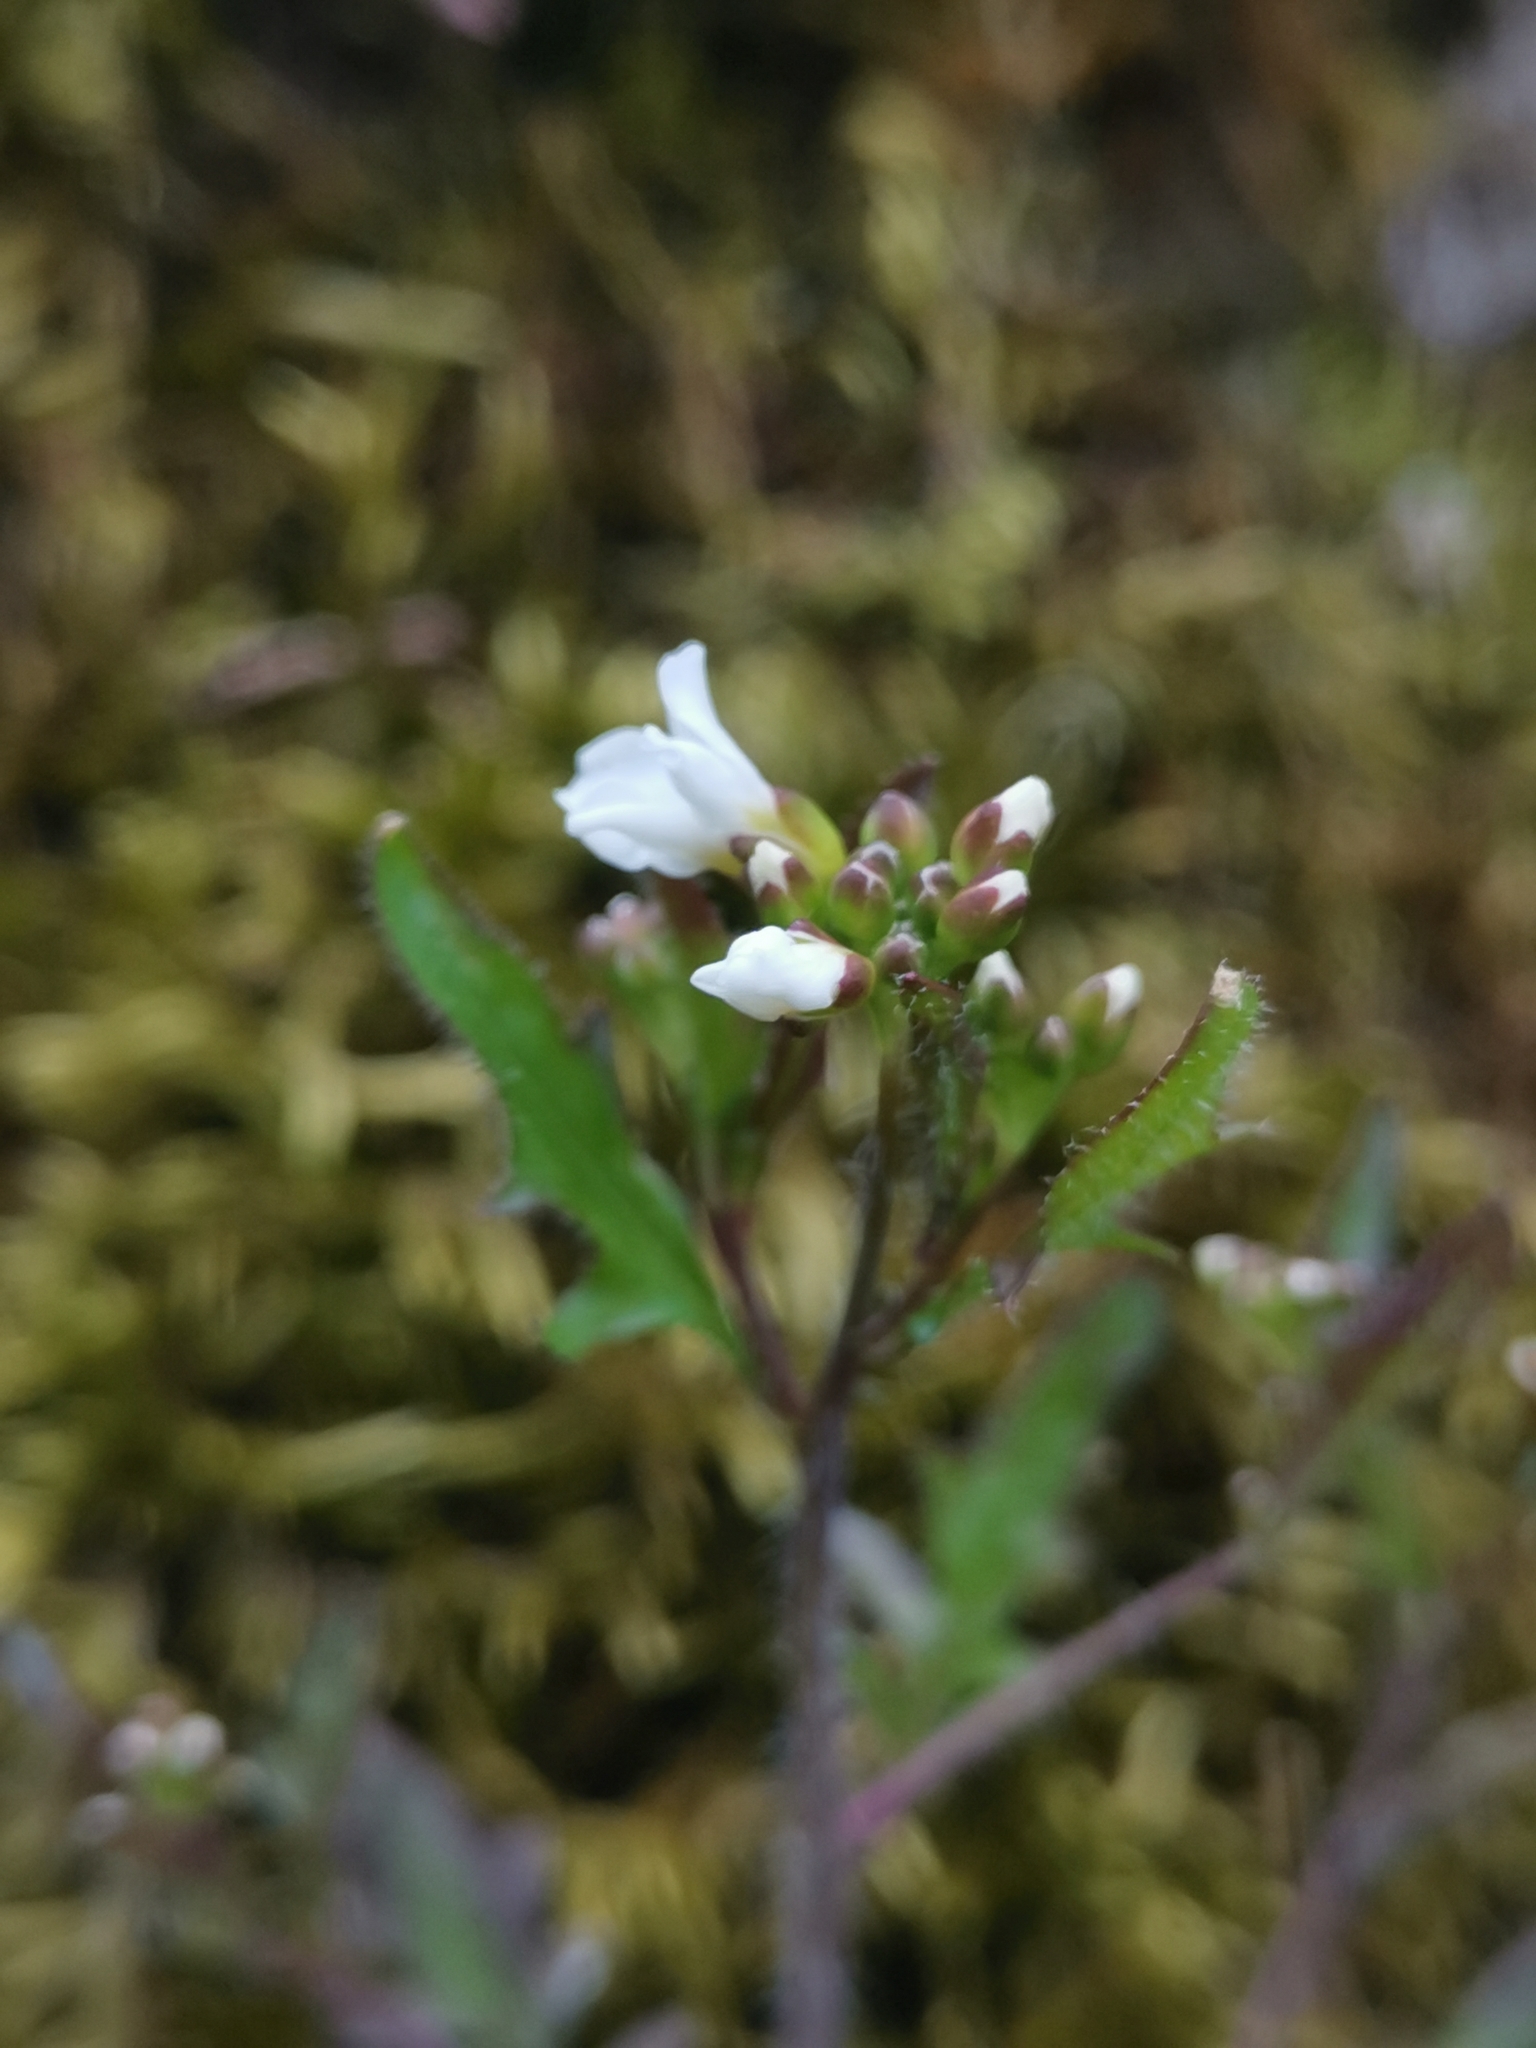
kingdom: Plantae
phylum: Tracheophyta
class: Magnoliopsida
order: Brassicales
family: Brassicaceae
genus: Arabidopsis
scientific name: Arabidopsis arenosa
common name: Sand rock-cress
